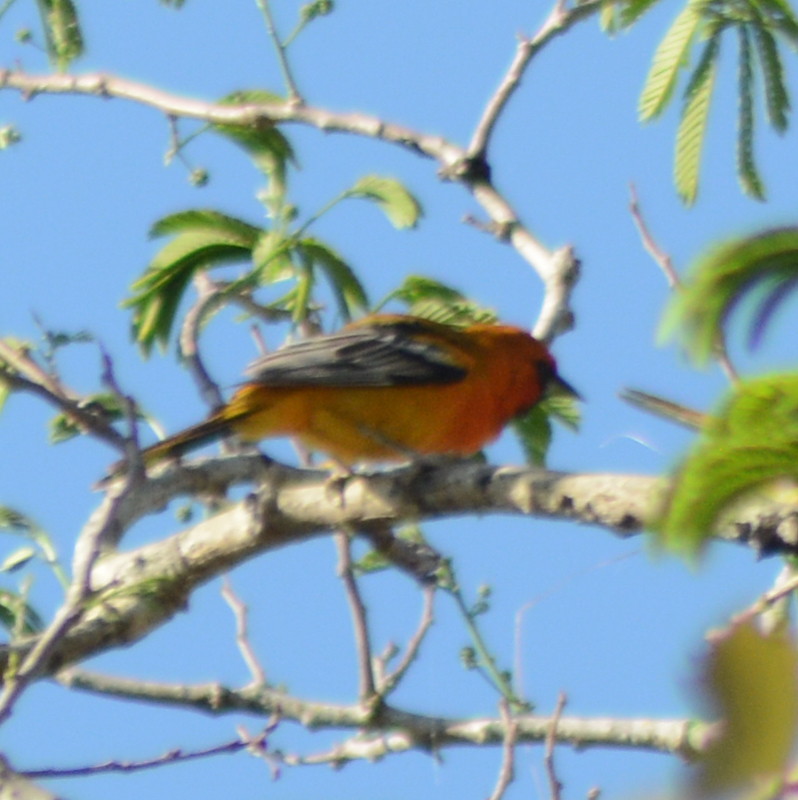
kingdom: Animalia
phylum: Chordata
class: Aves
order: Passeriformes
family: Icteridae
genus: Icterus
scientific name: Icterus pustulatus
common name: Streak-backed oriole
